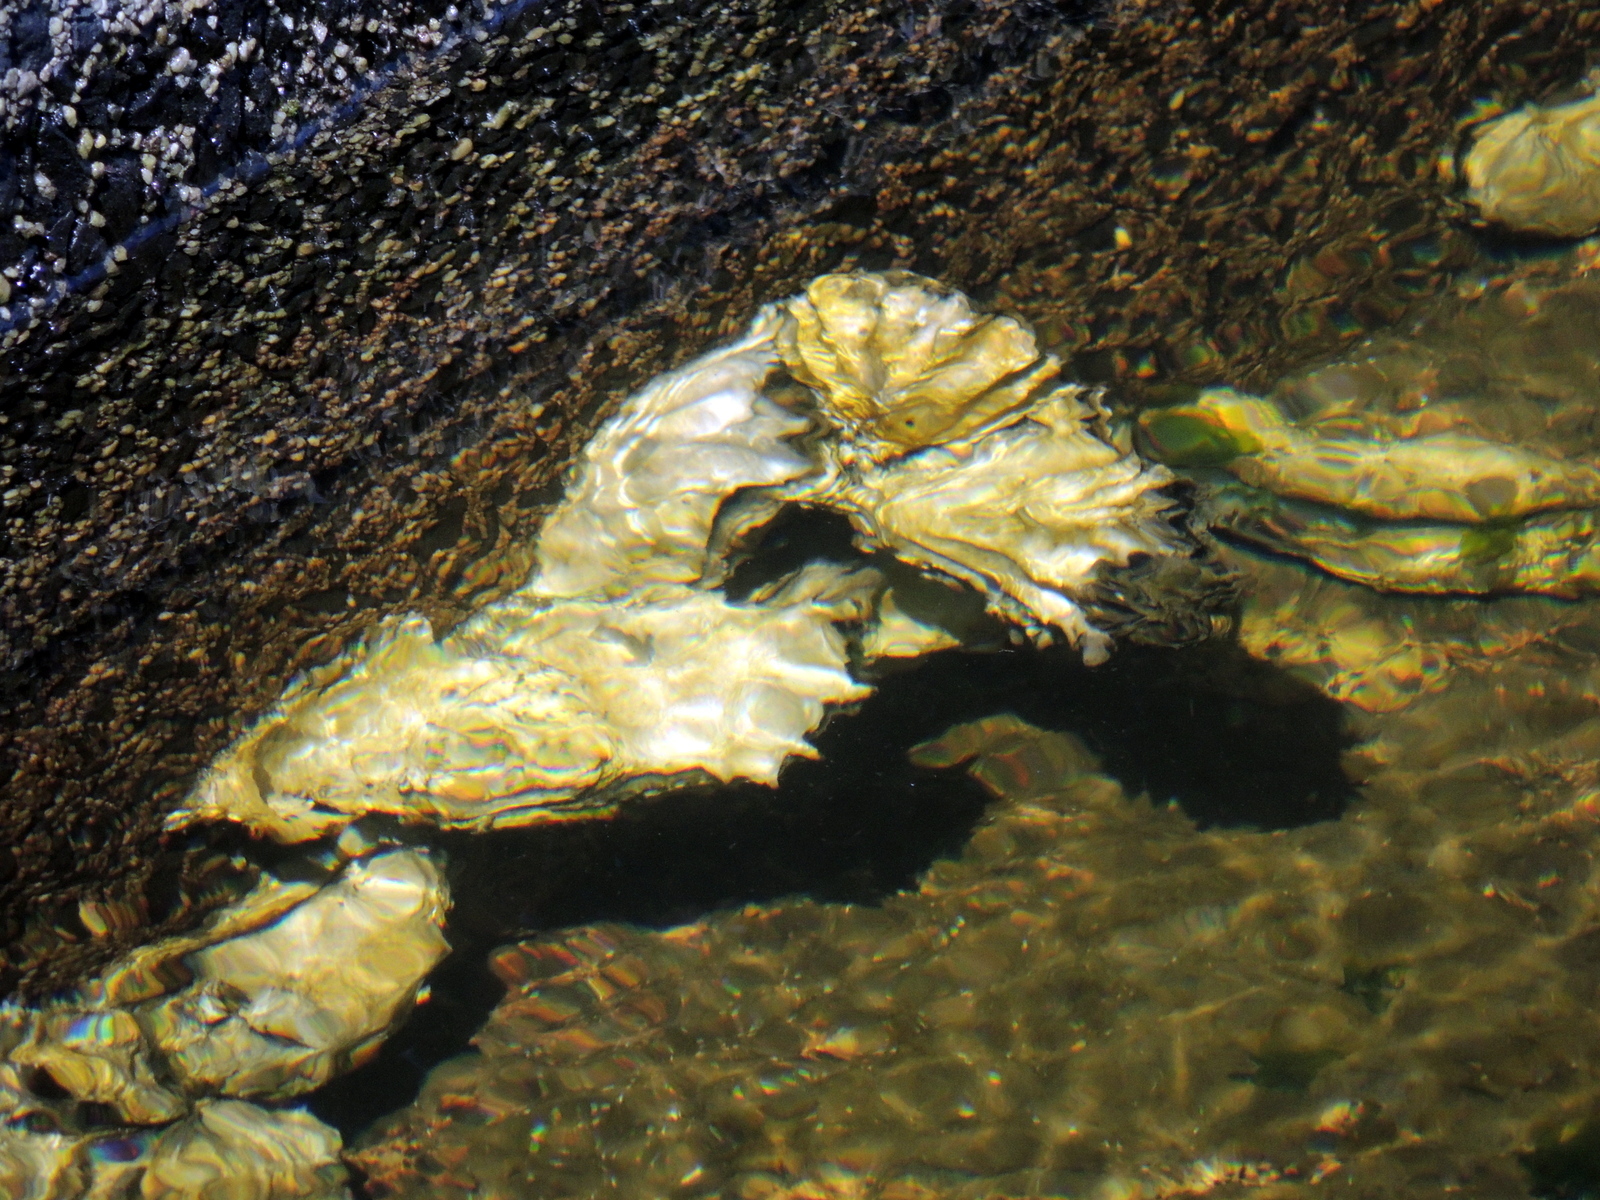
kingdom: Animalia
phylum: Mollusca
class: Bivalvia
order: Ostreida
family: Ostreidae
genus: Magallana
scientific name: Magallana gigas
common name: Pacific oyster
